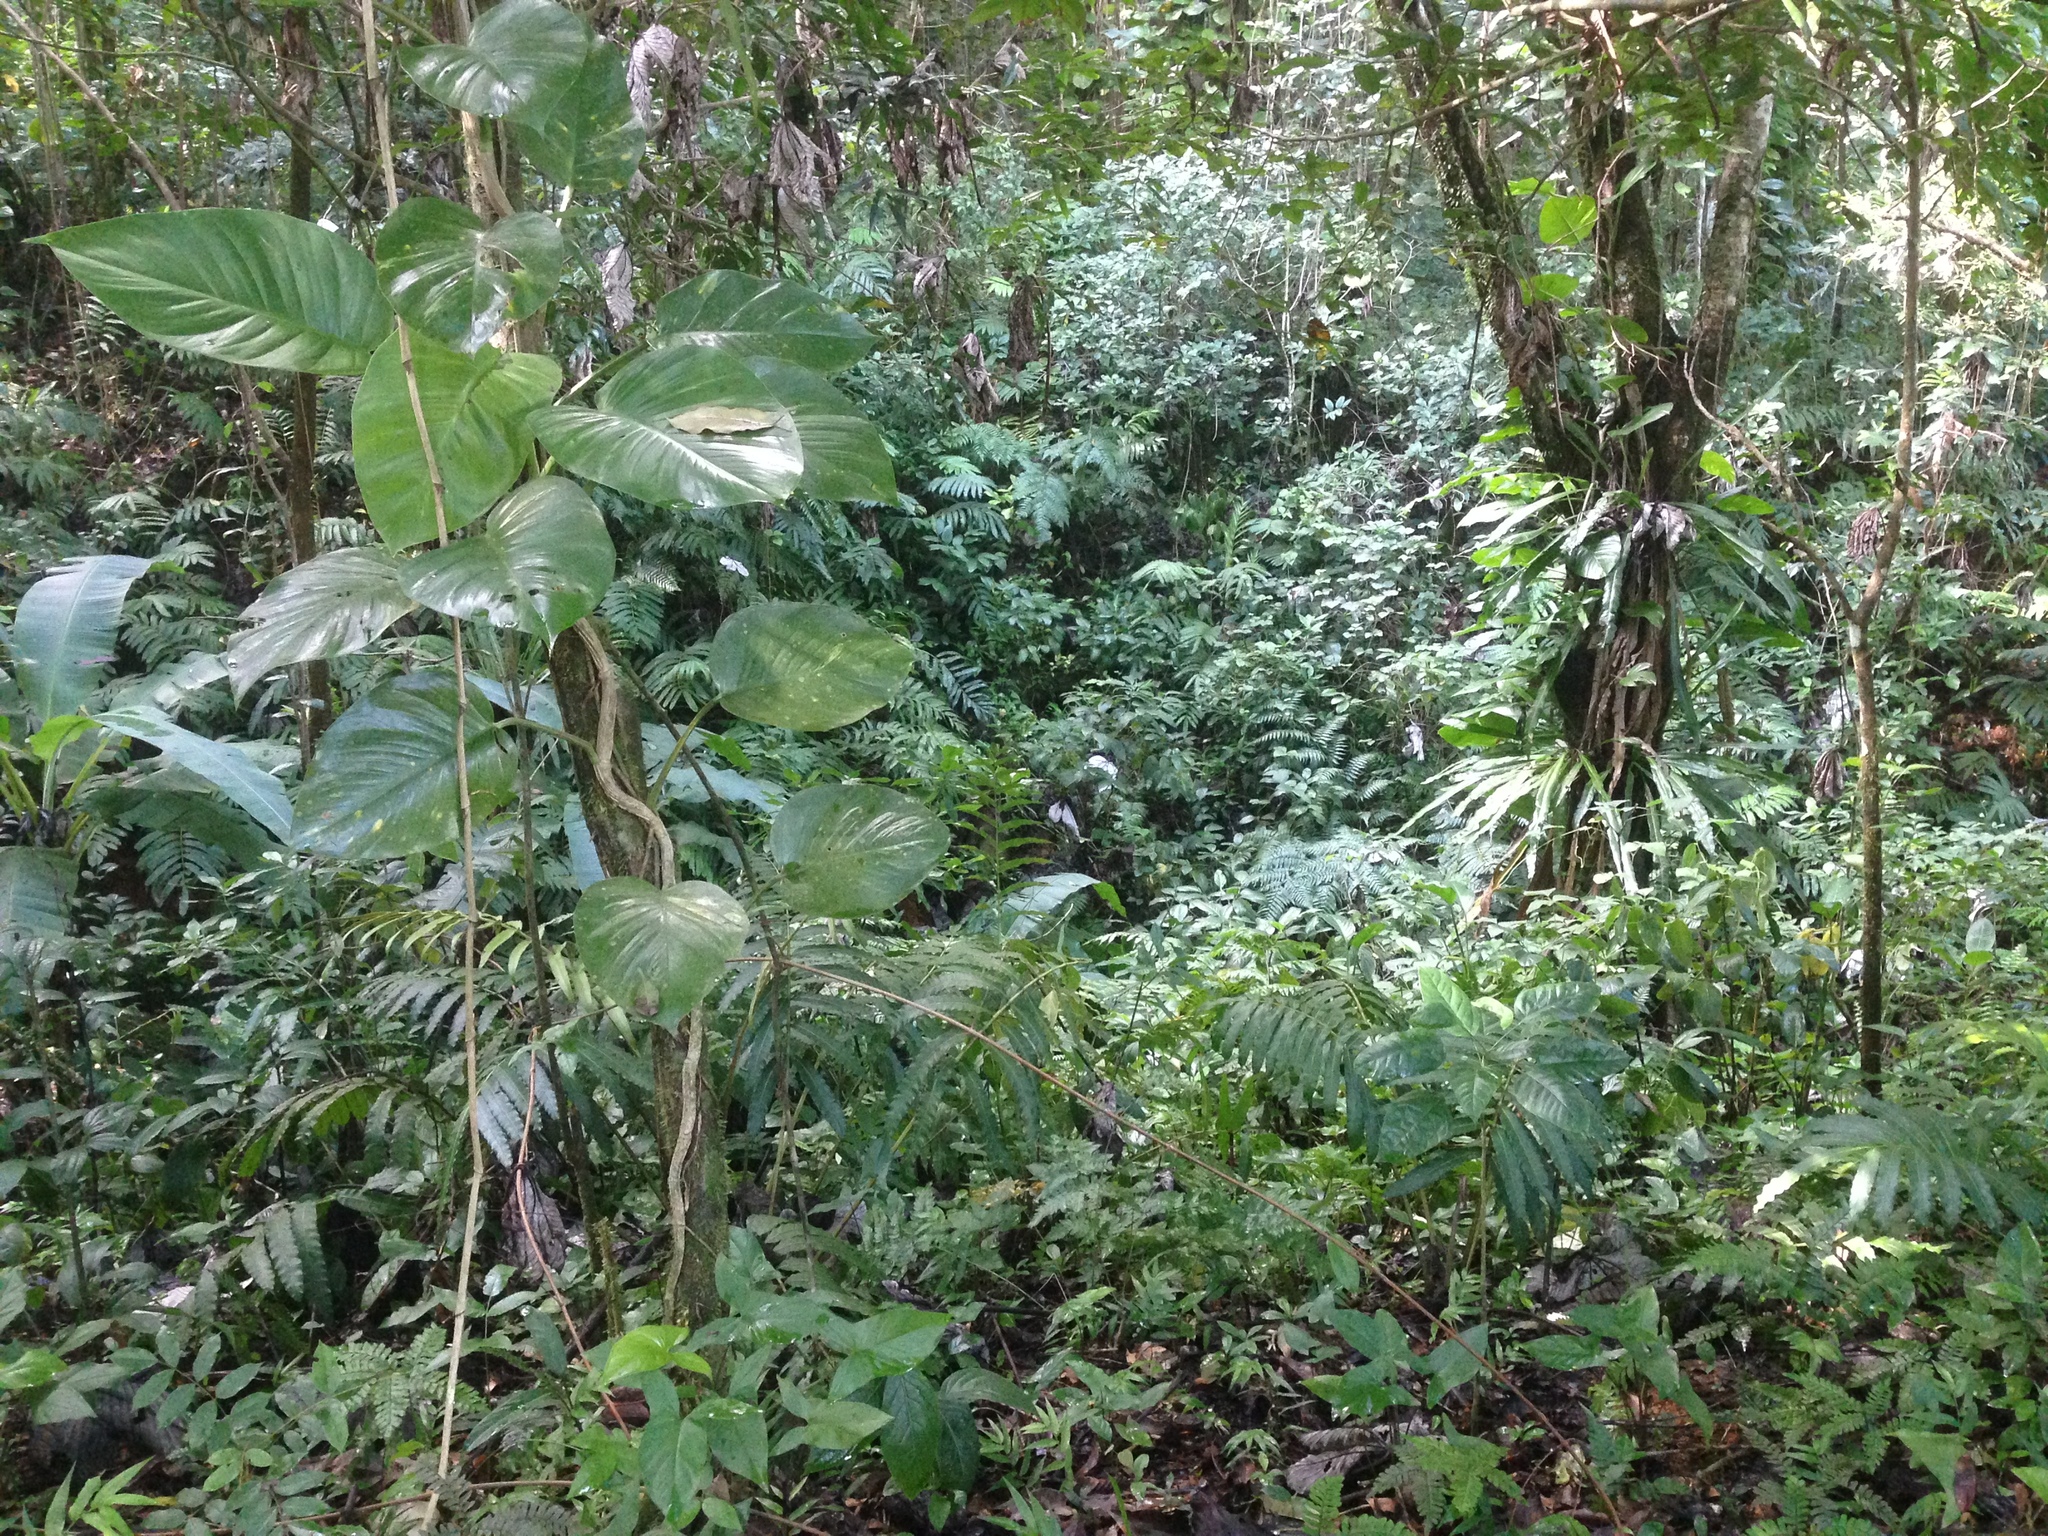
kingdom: Plantae
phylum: Tracheophyta
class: Liliopsida
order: Alismatales
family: Araceae
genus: Epipremnum
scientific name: Epipremnum aureum
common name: Golden hunter's-robe
